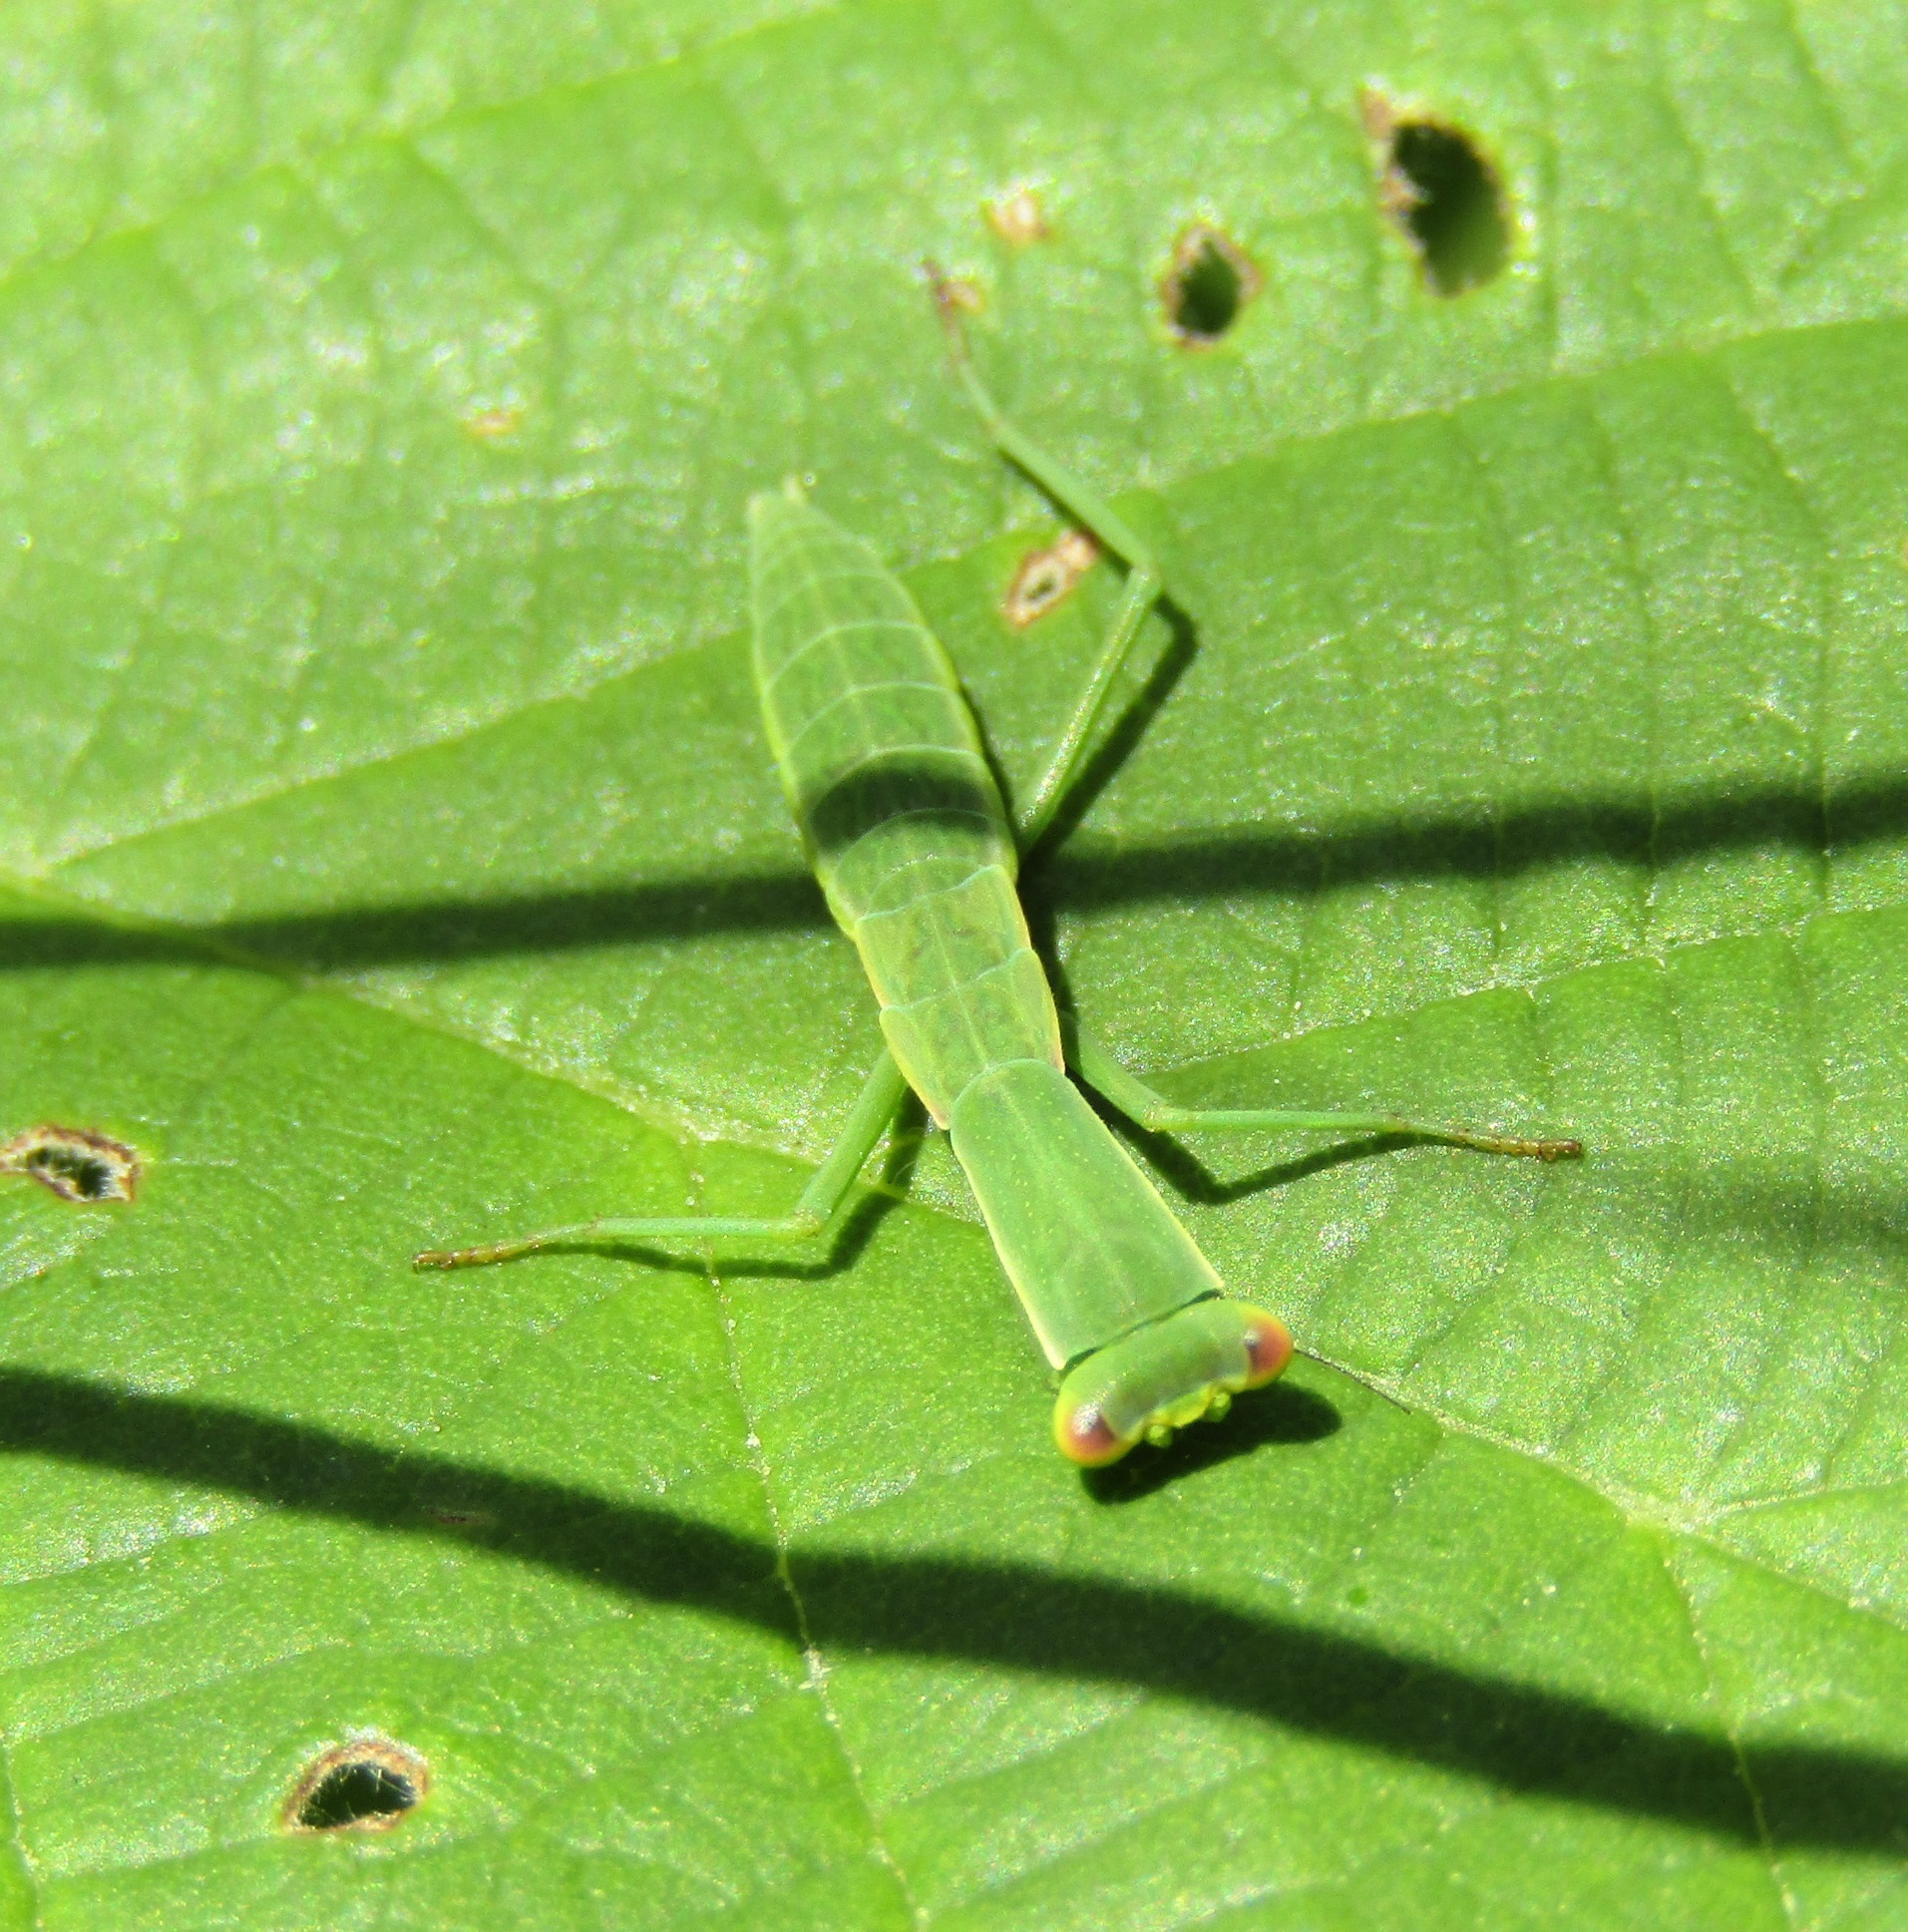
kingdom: Animalia
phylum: Arthropoda
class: Insecta
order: Mantodea
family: Mantidae
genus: Orthodera
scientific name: Orthodera novaezealandiae
